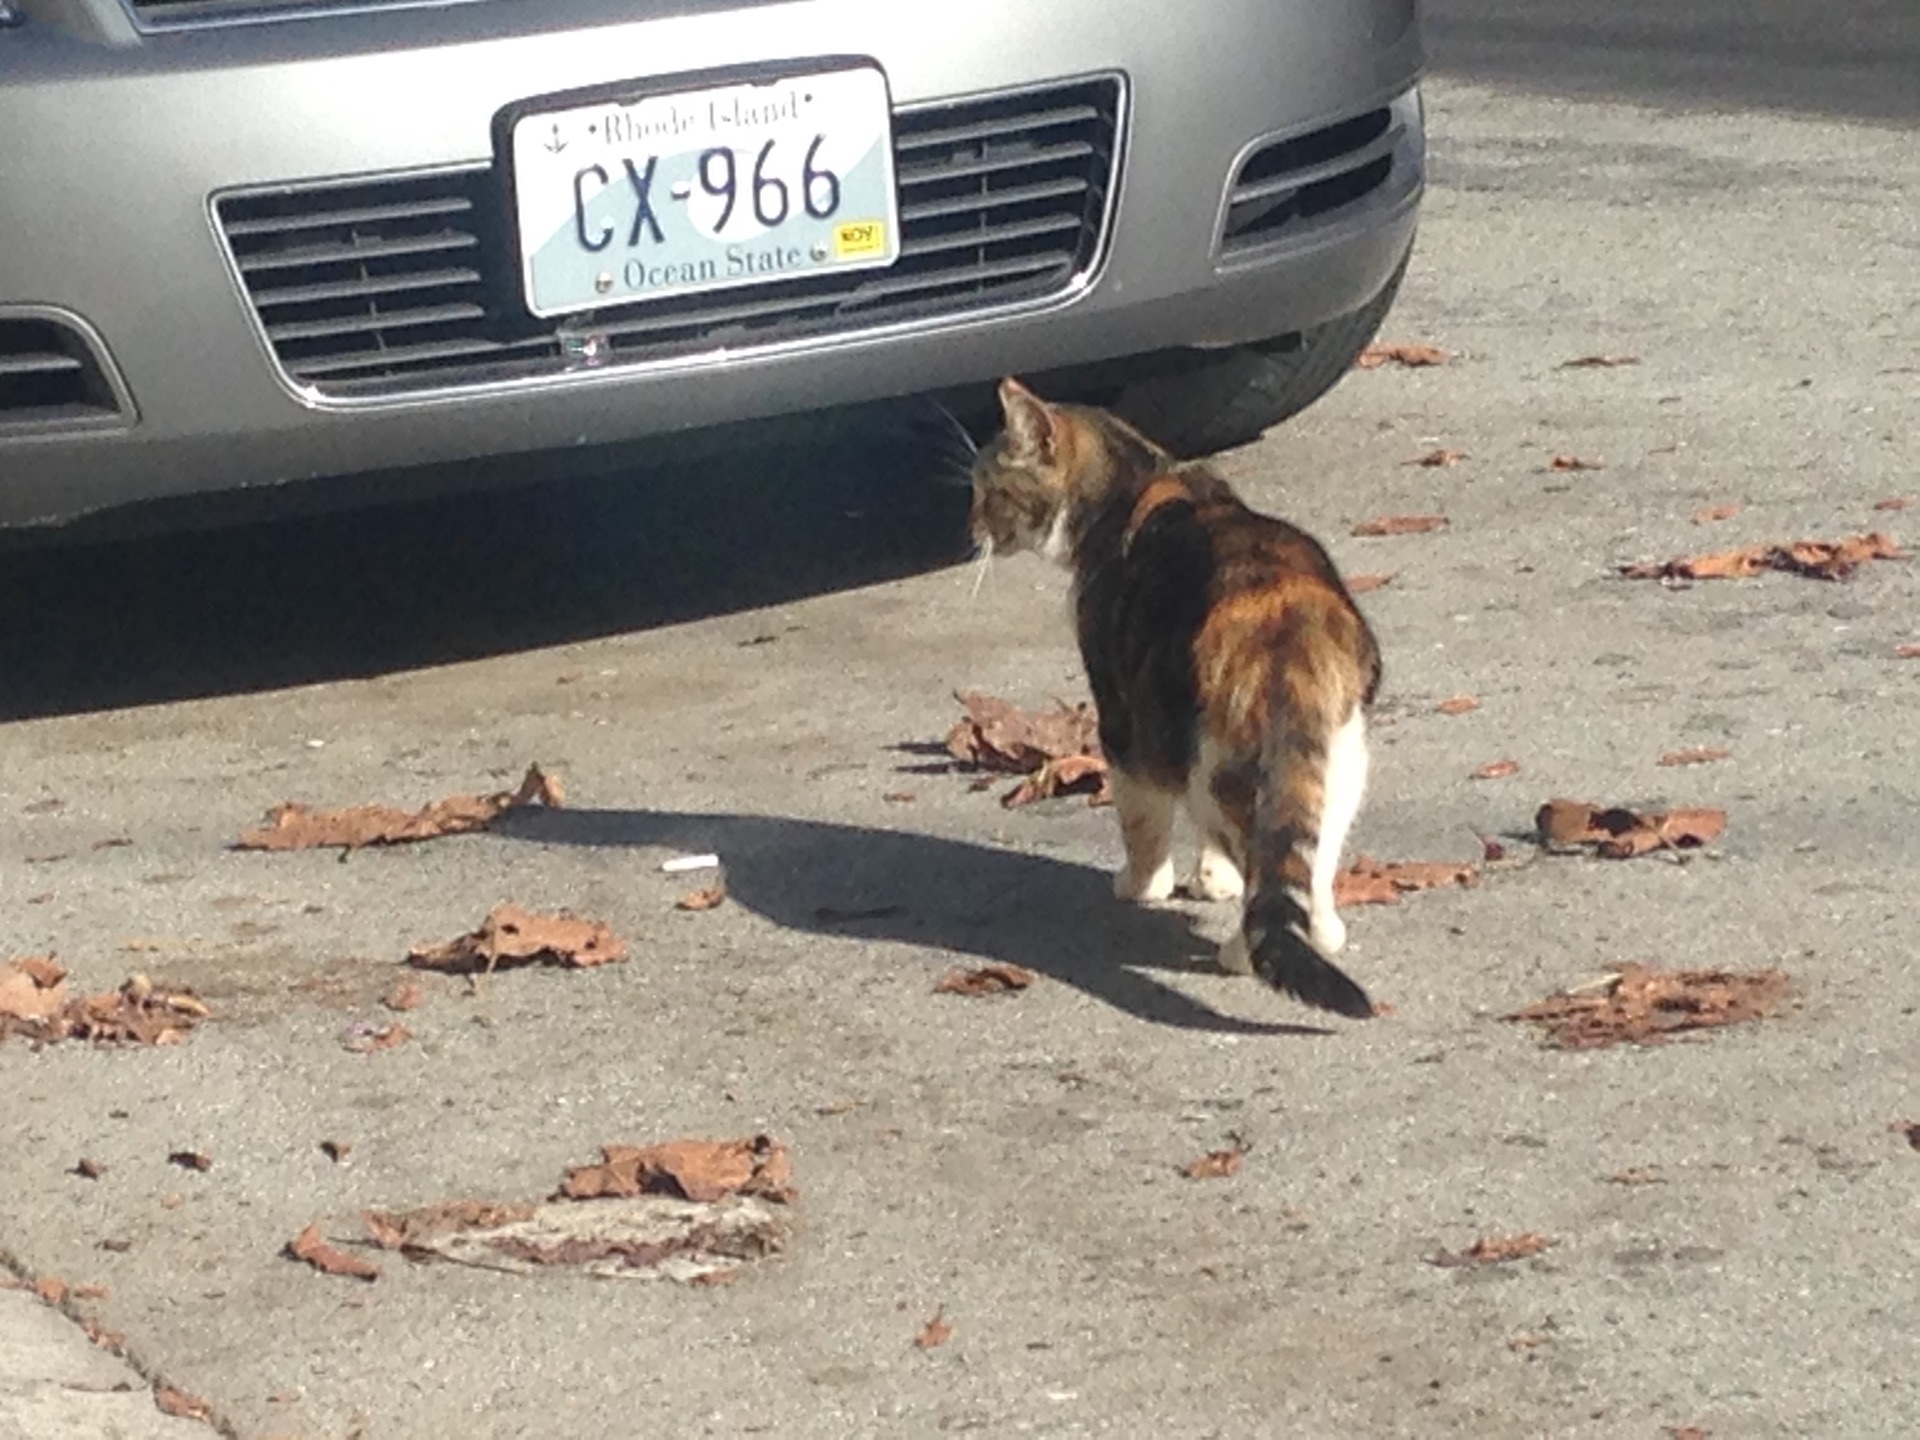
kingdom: Animalia
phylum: Chordata
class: Mammalia
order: Carnivora
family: Felidae
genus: Felis
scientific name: Felis catus
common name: Domestic cat
